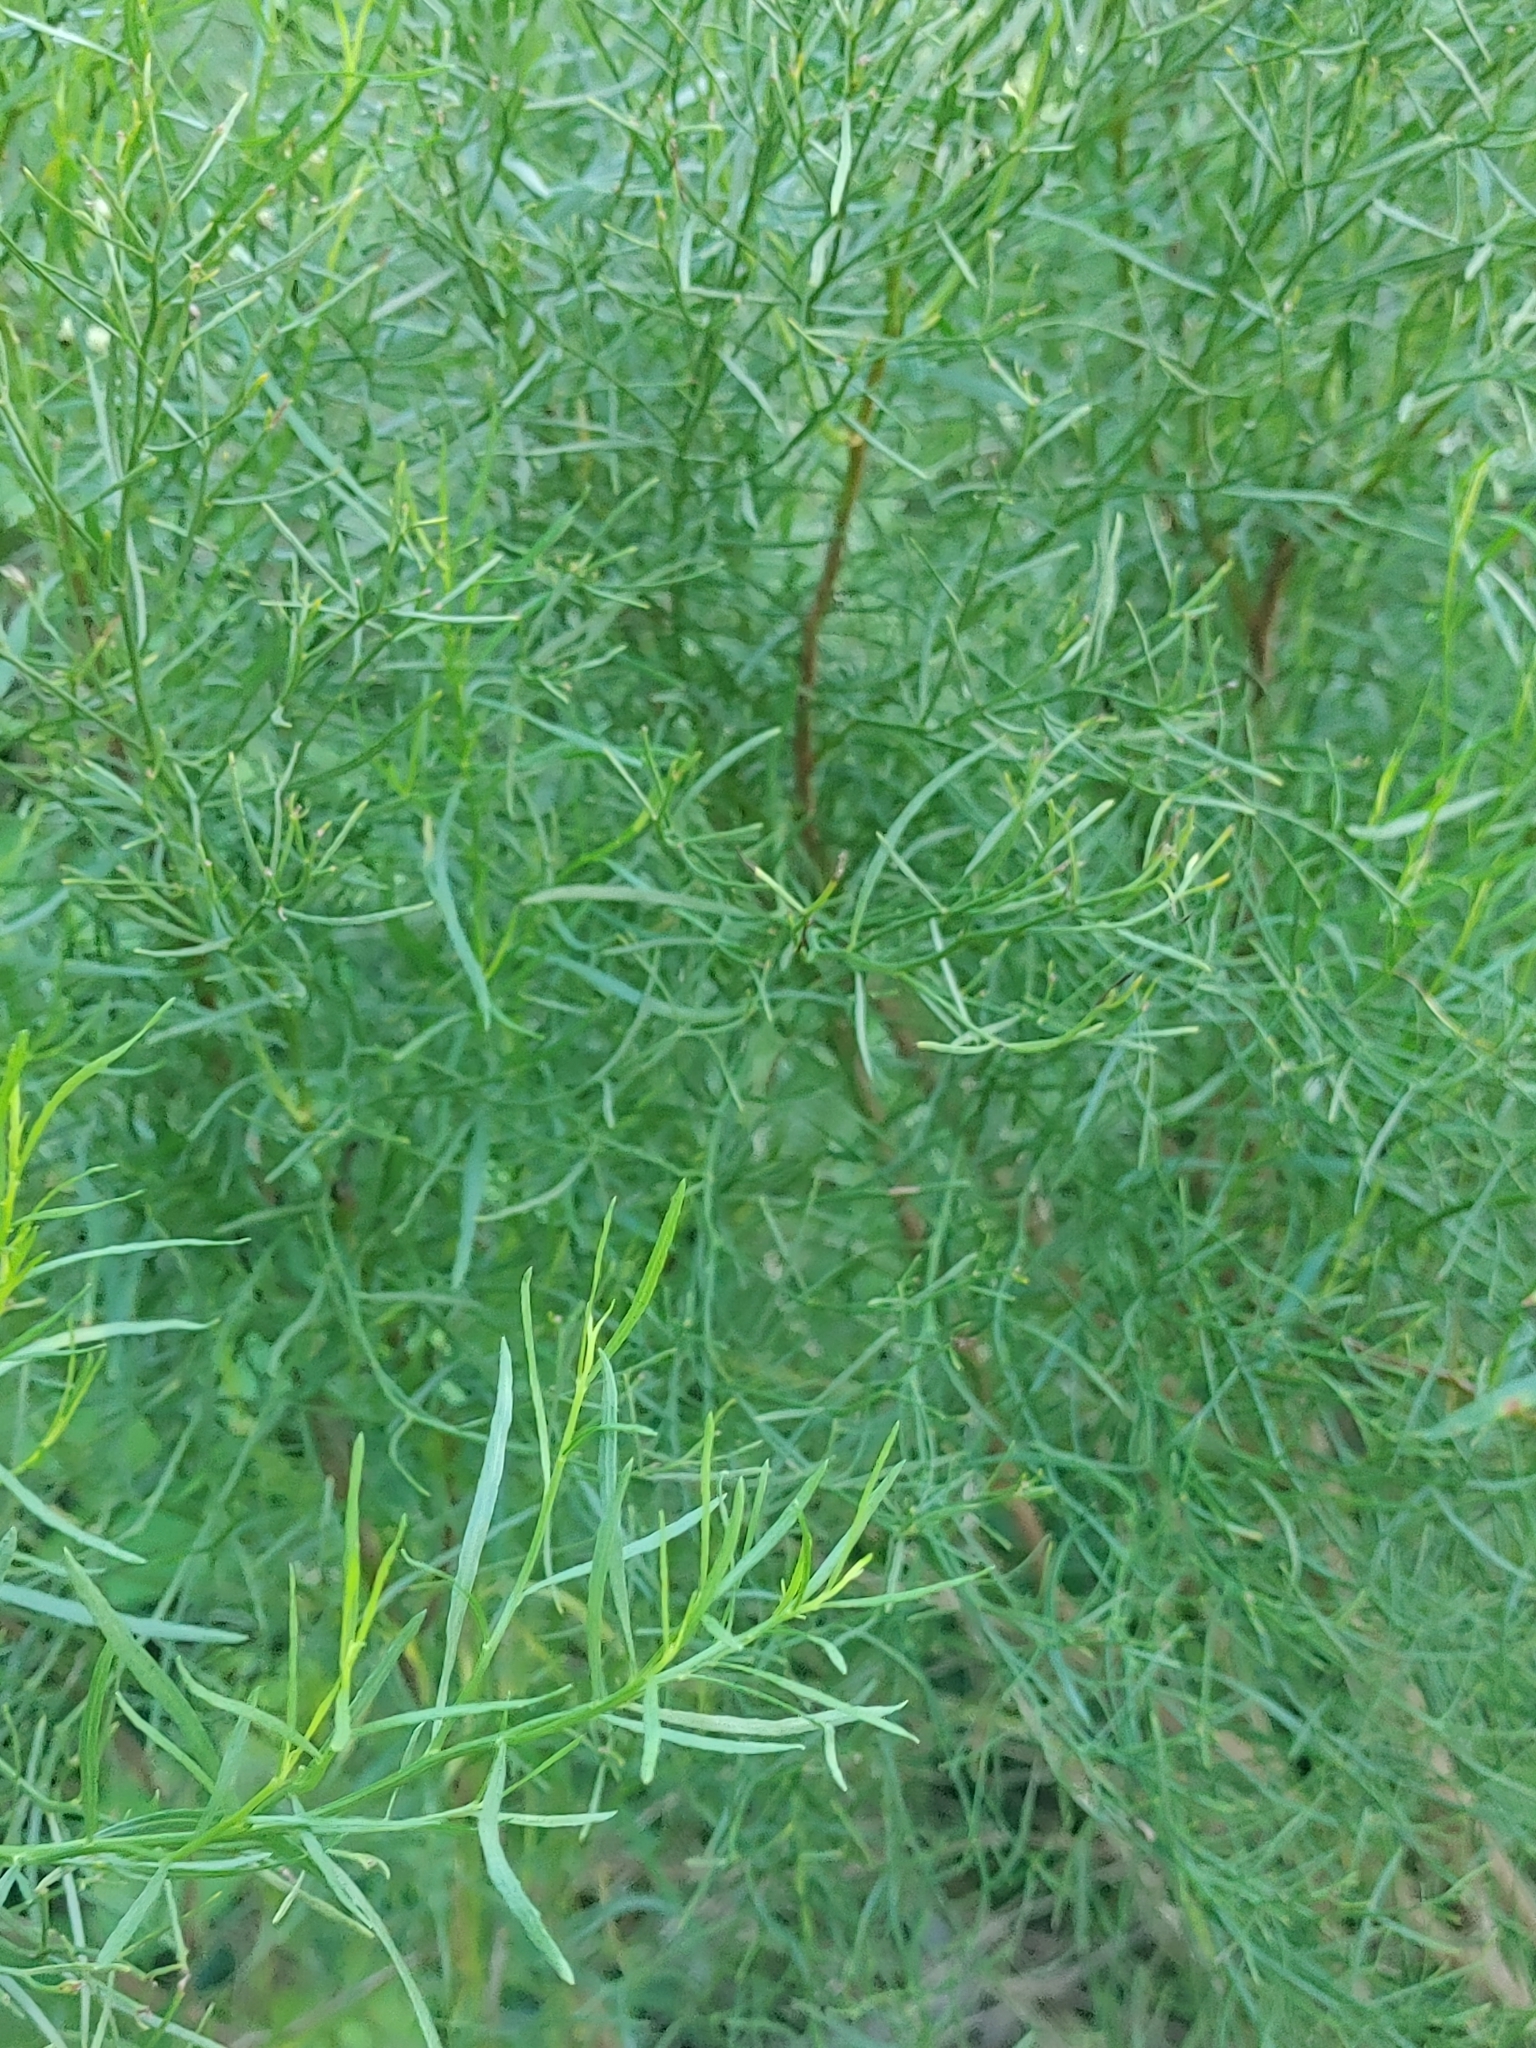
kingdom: Plantae
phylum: Tracheophyta
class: Magnoliopsida
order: Asterales
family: Asteraceae
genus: Baccharis
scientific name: Baccharis angustifolia
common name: Narrow-leaf baccharis
